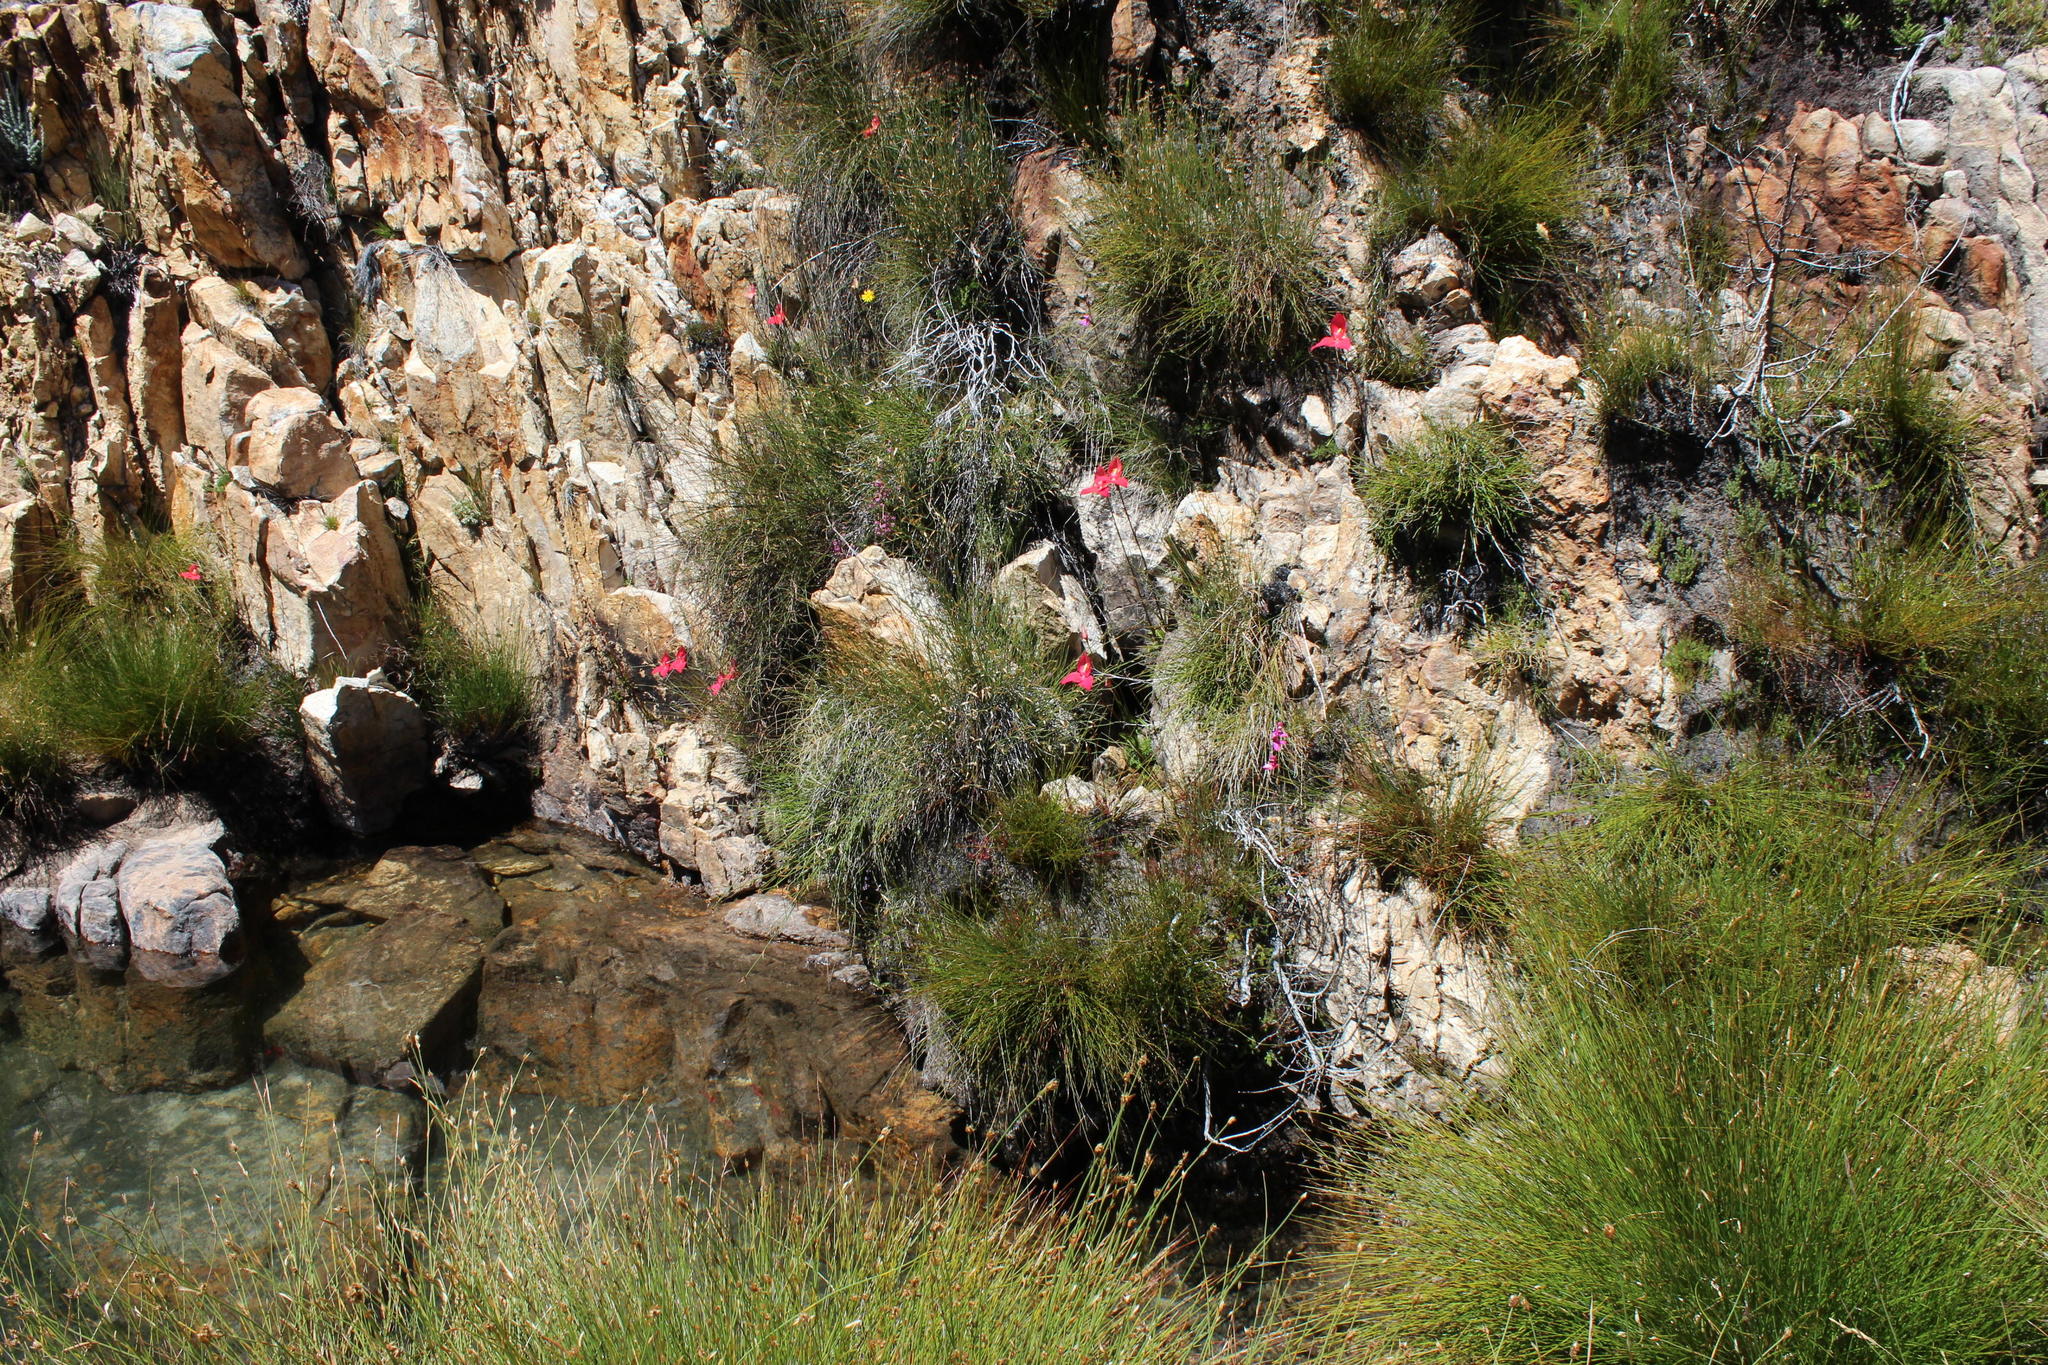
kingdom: Plantae
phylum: Tracheophyta
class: Liliopsida
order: Asparagales
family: Orchidaceae
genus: Disa
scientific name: Disa racemosa
